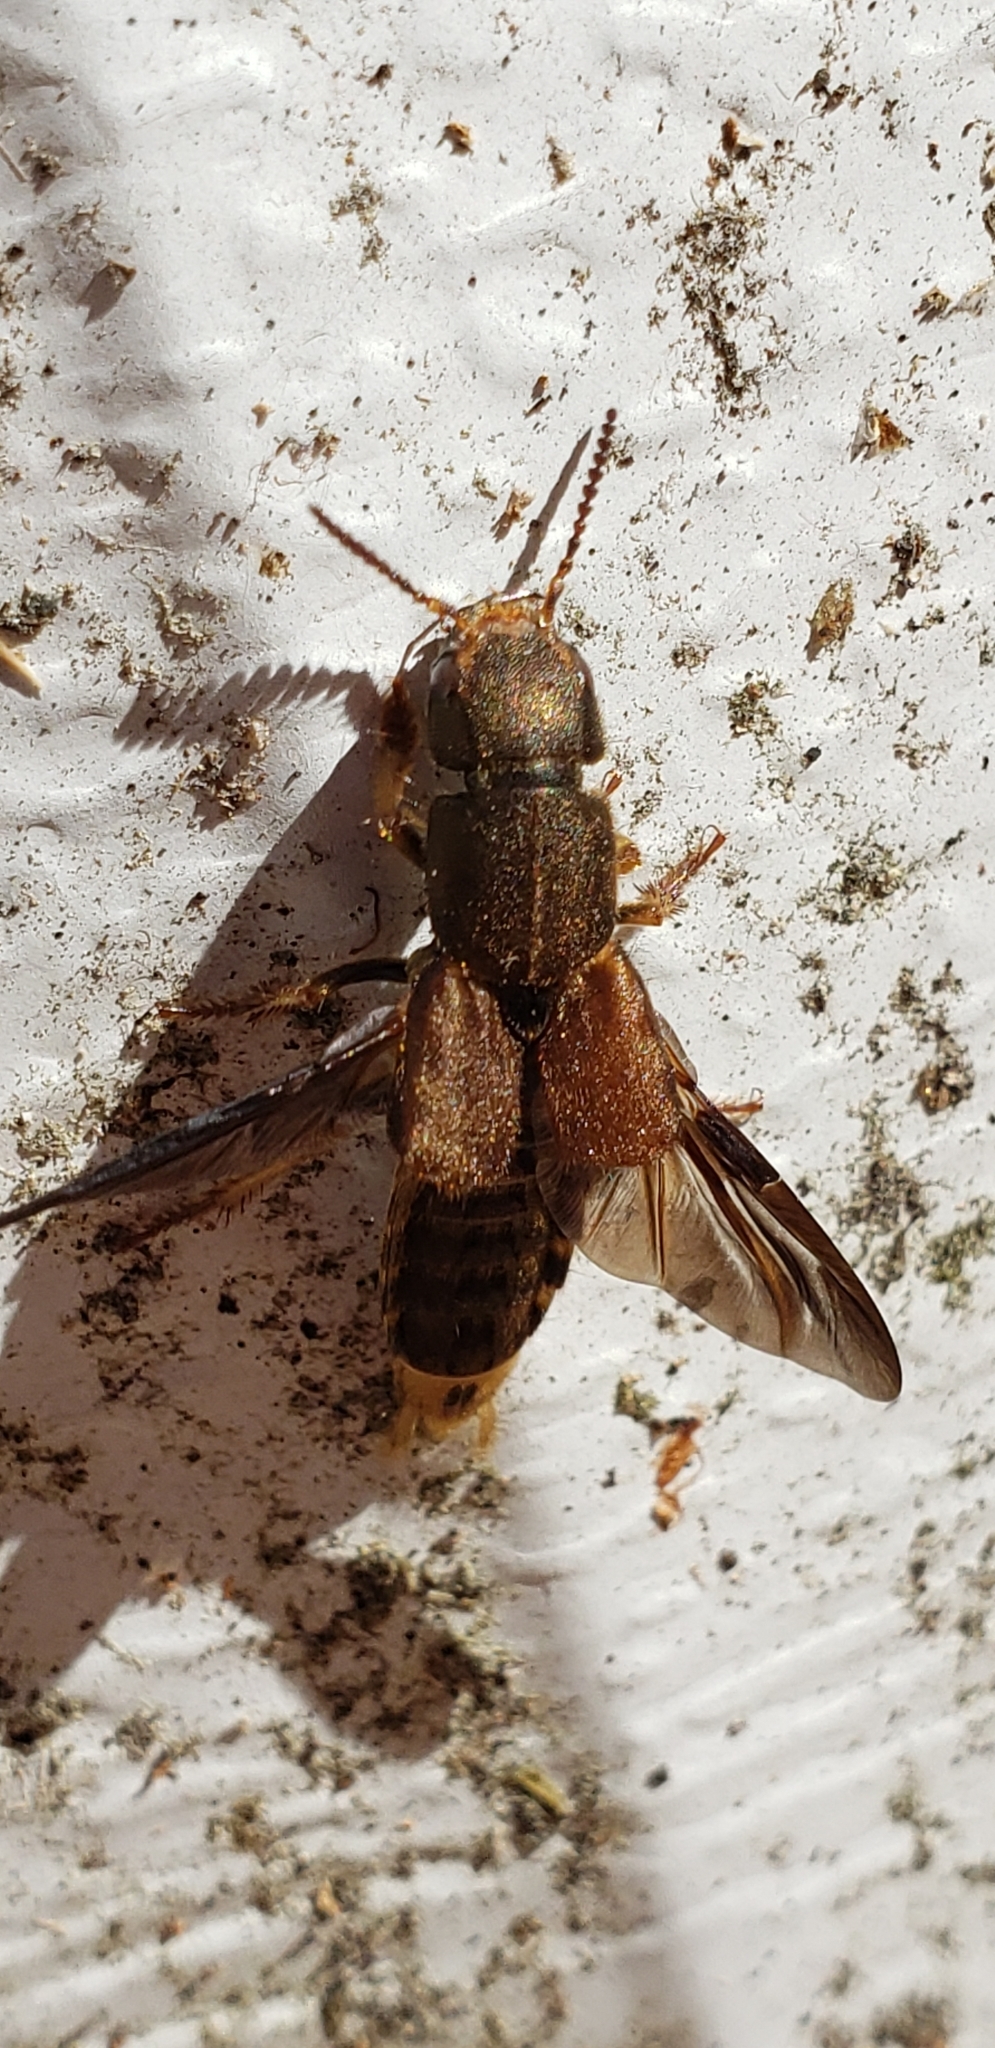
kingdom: Animalia
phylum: Arthropoda
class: Insecta
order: Coleoptera
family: Staphylinidae
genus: Platydracus
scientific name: Platydracus maculosus
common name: Brown rove beetle
